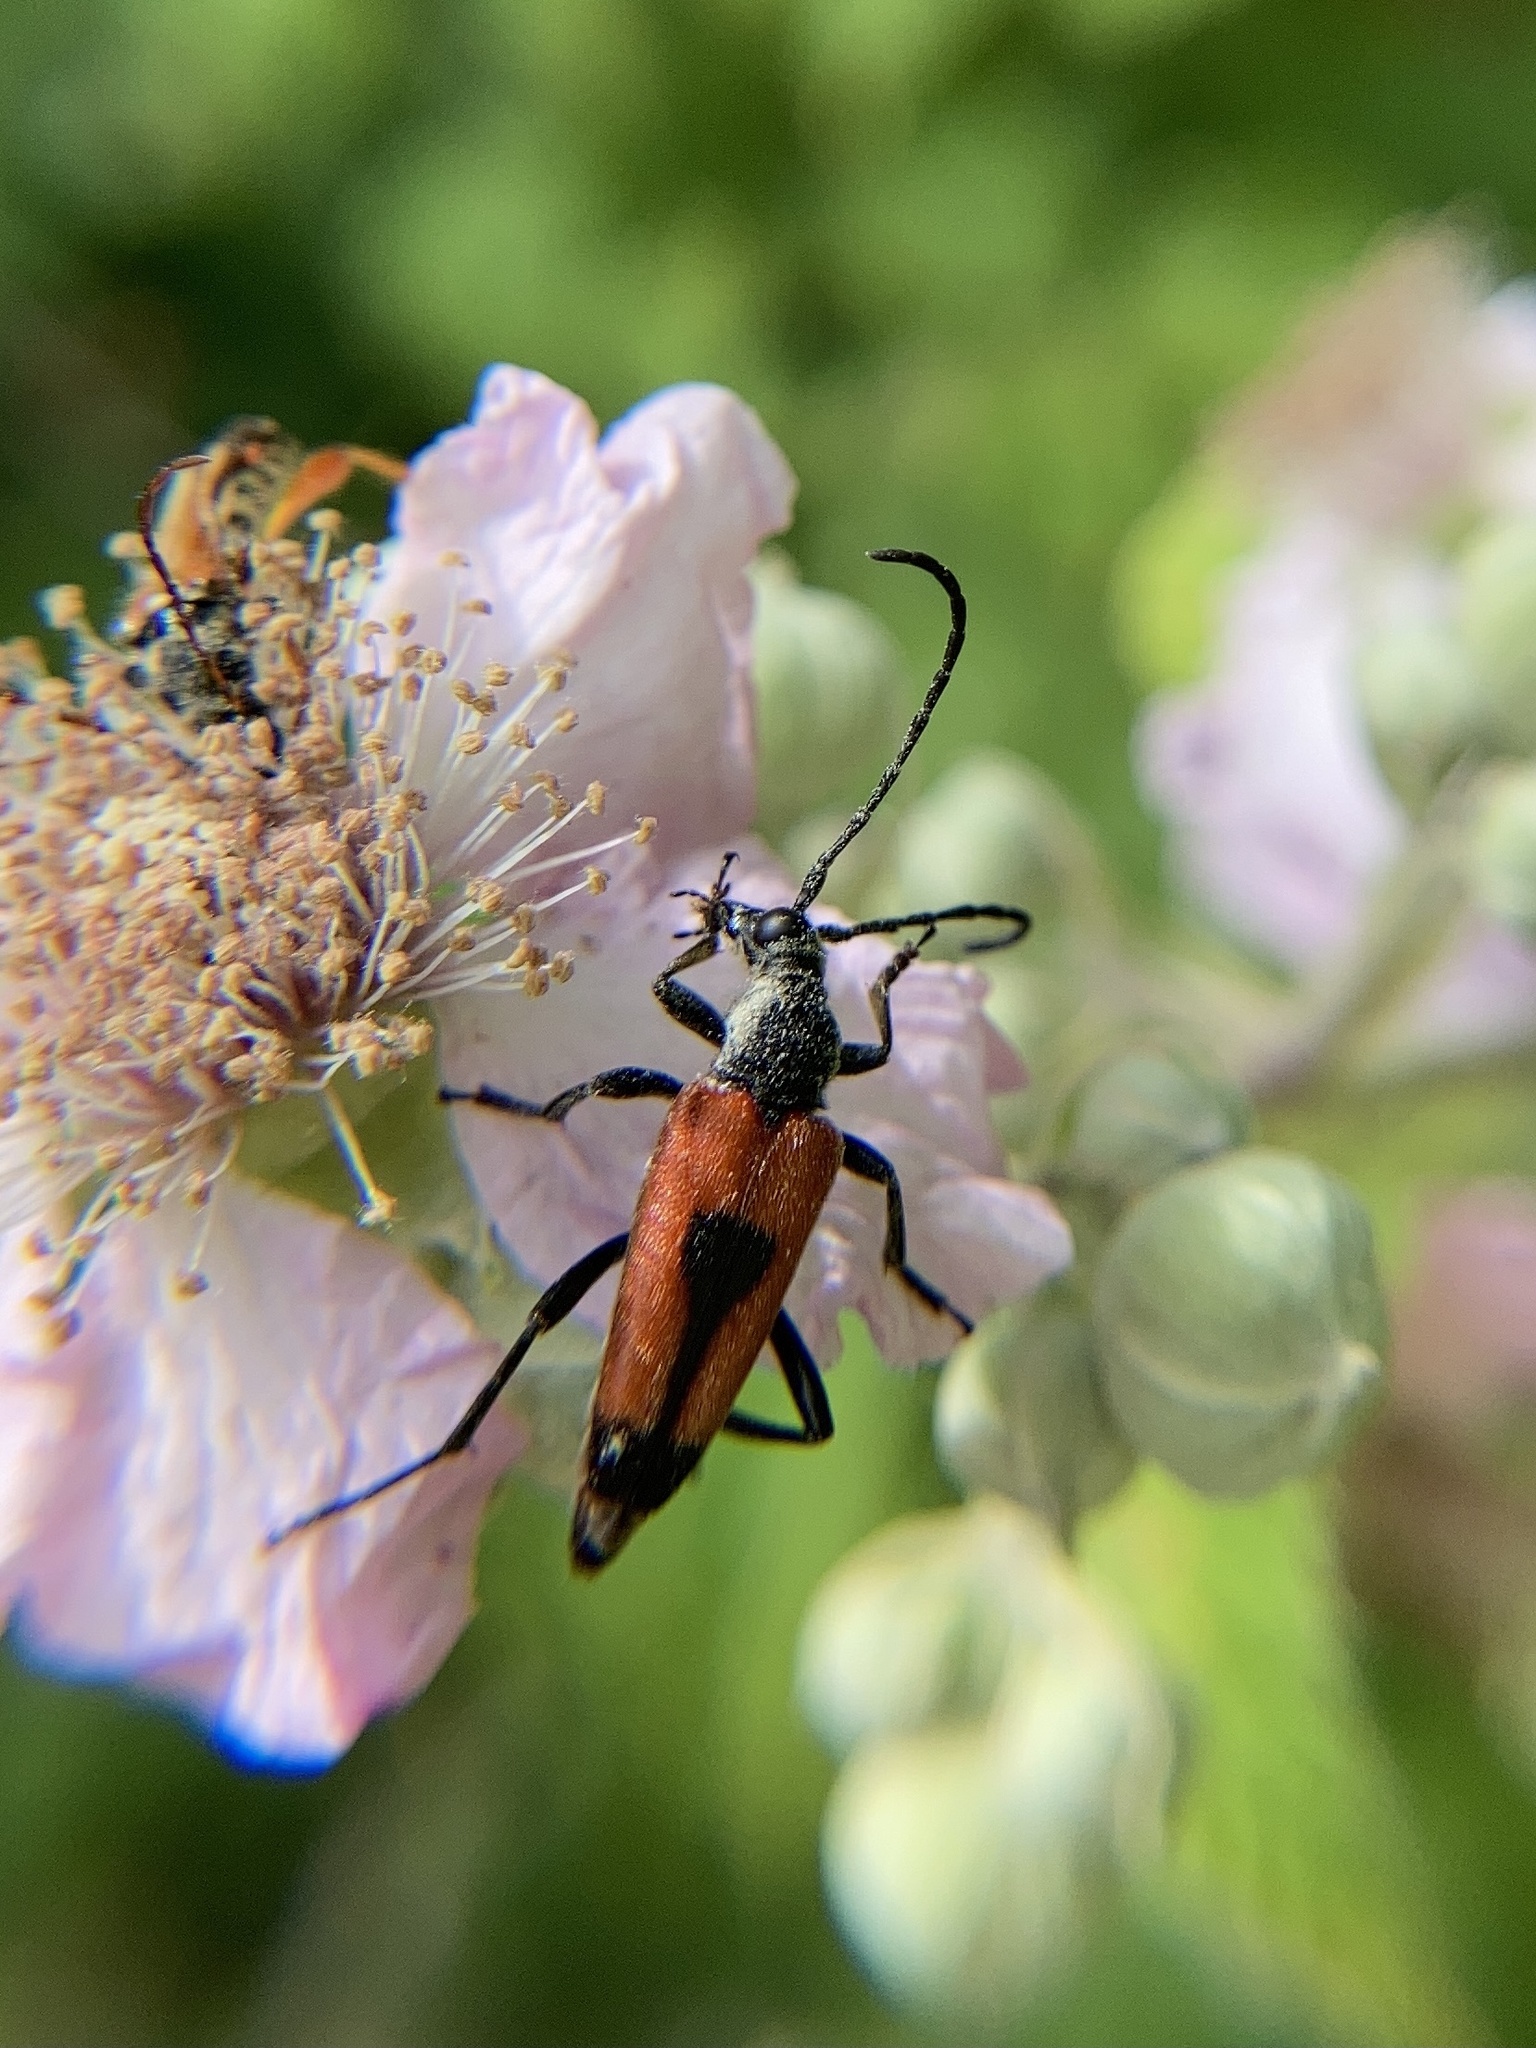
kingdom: Animalia
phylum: Arthropoda
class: Insecta
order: Coleoptera
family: Cerambycidae
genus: Stictoleptura
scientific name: Stictoleptura cordigera
